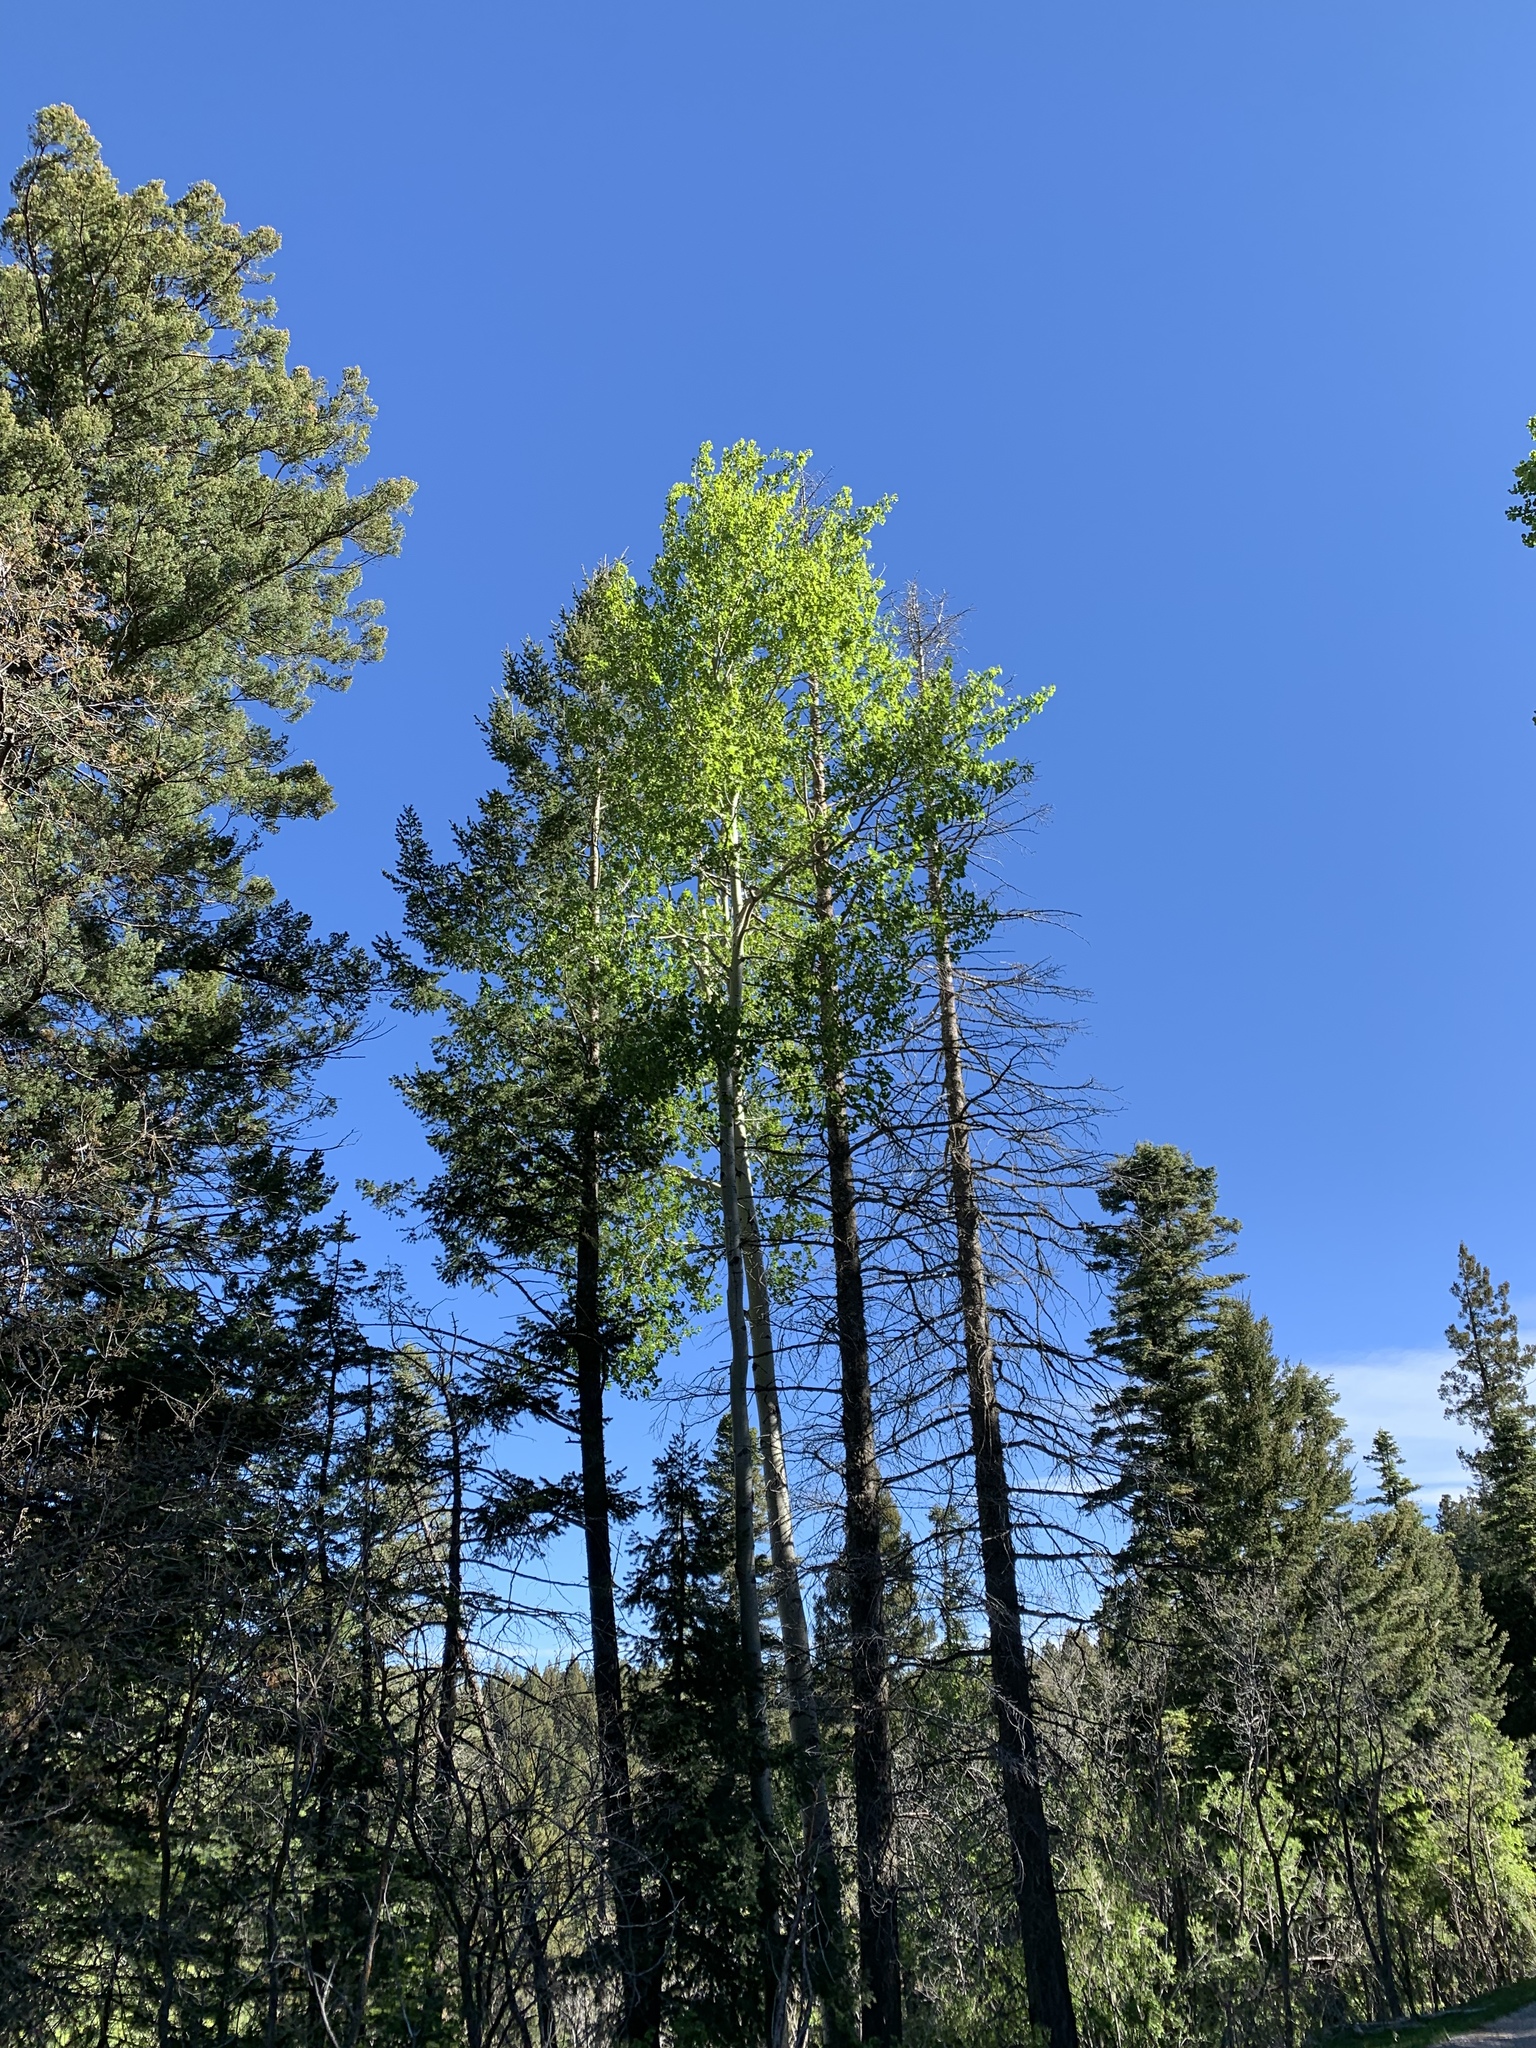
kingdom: Plantae
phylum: Tracheophyta
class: Magnoliopsida
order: Malpighiales
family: Salicaceae
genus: Populus
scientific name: Populus tremuloides
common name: Quaking aspen
